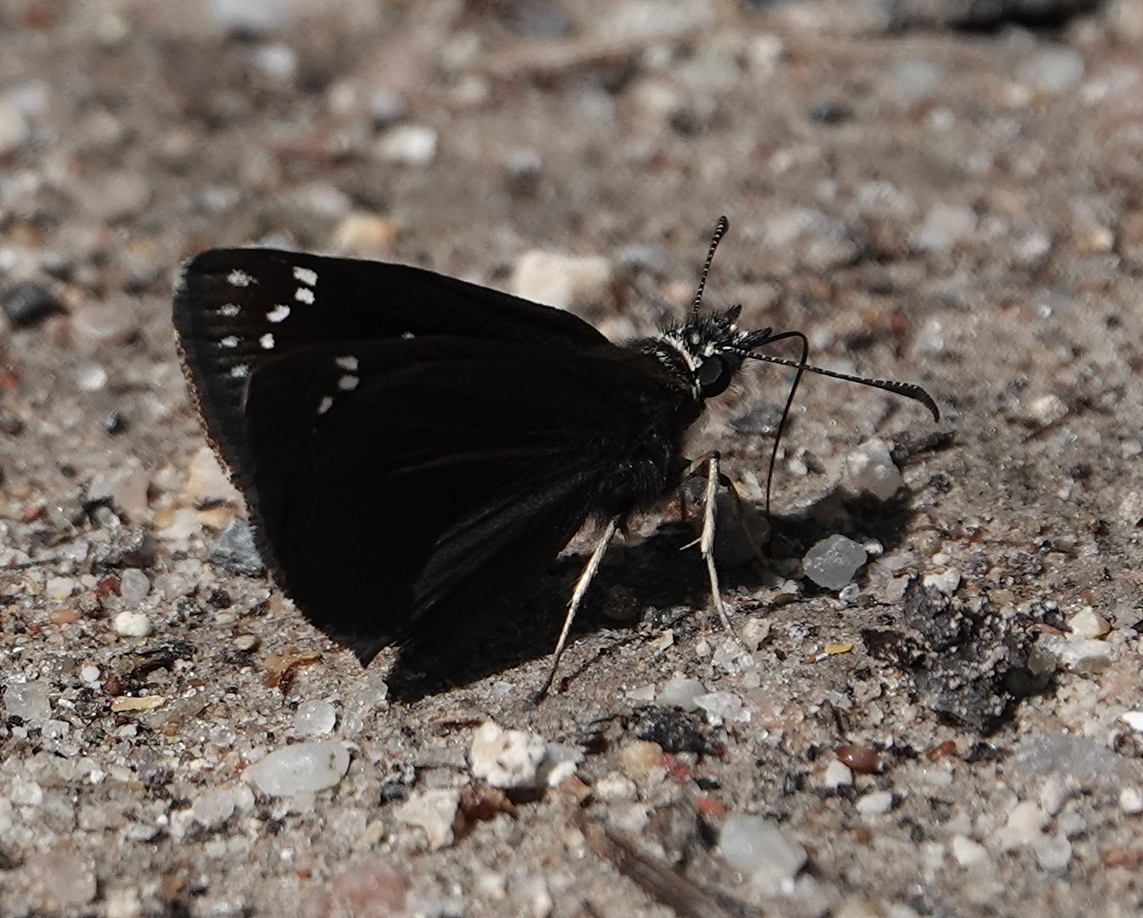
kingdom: Animalia
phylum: Arthropoda
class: Insecta
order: Lepidoptera
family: Hesperiidae
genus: Pholisora
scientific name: Pholisora catullus
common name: Common sootywing
